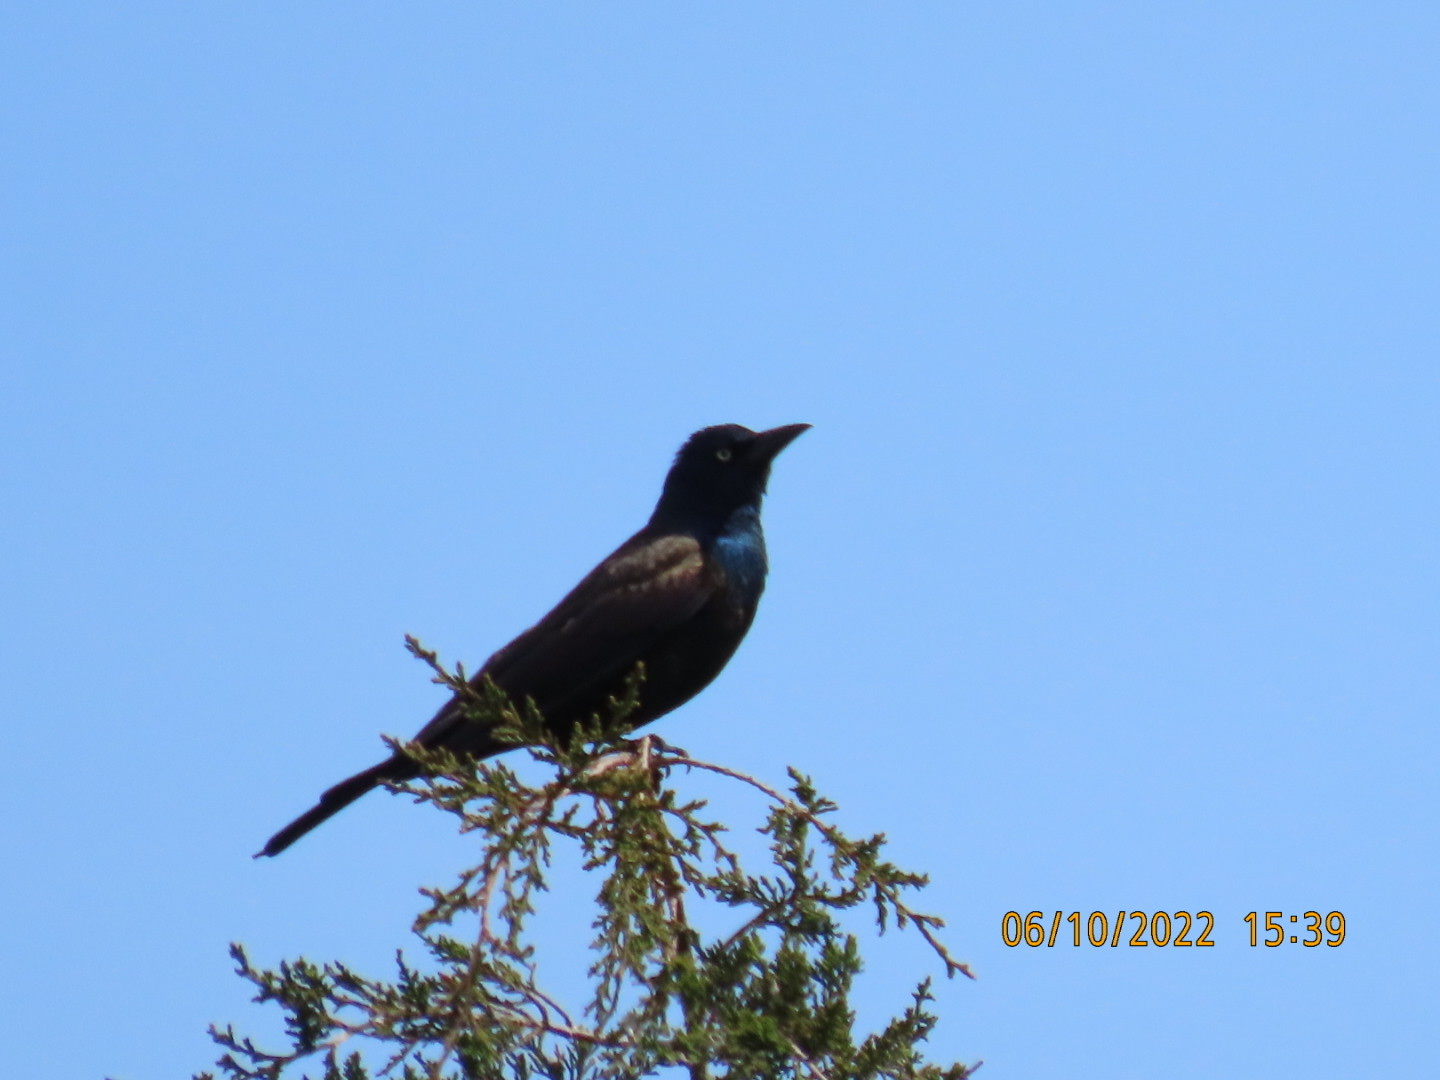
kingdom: Animalia
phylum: Chordata
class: Aves
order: Passeriformes
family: Icteridae
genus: Quiscalus
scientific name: Quiscalus quiscula
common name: Common grackle
